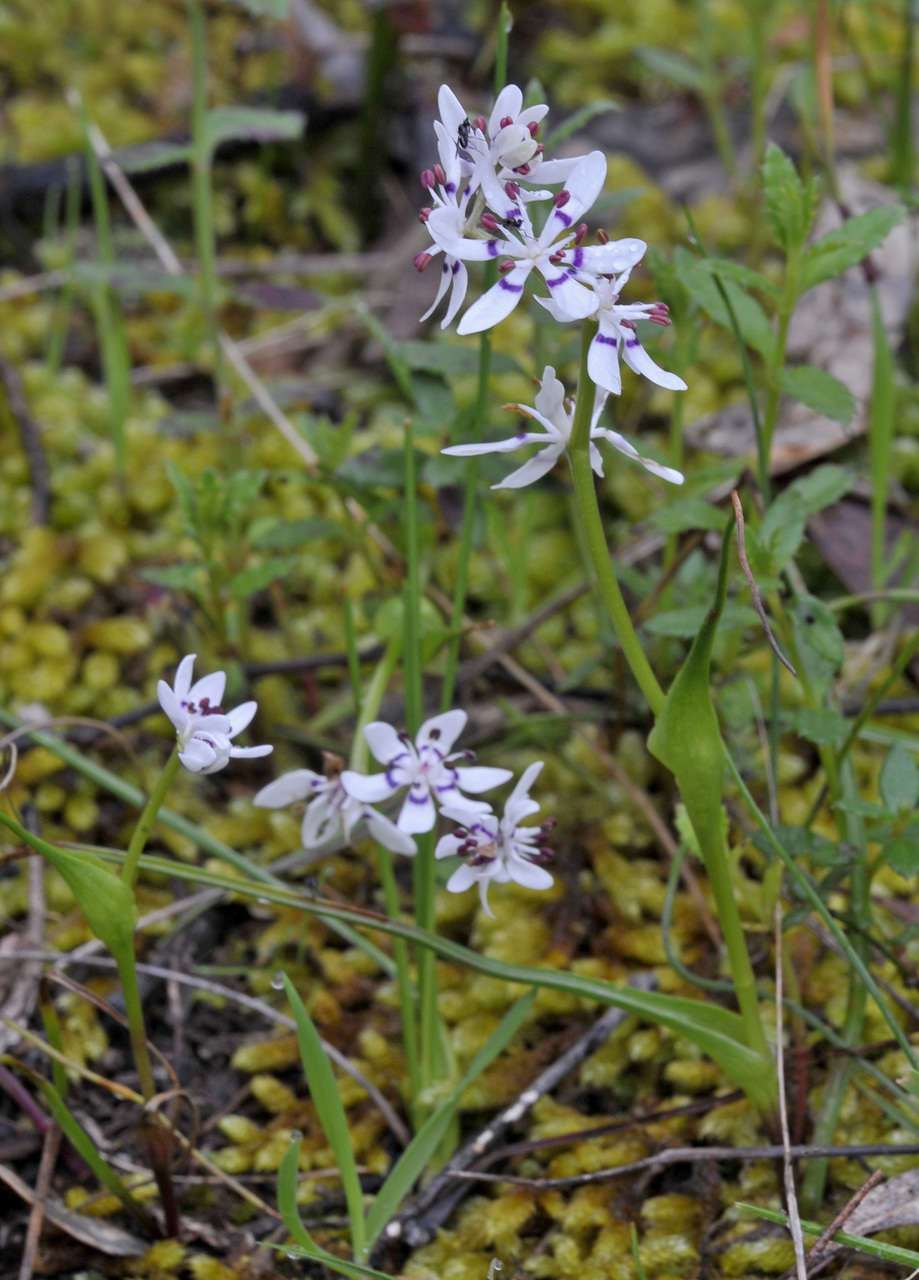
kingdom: Plantae
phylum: Tracheophyta
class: Liliopsida
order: Liliales
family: Colchicaceae
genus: Wurmbea
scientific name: Wurmbea dioica
